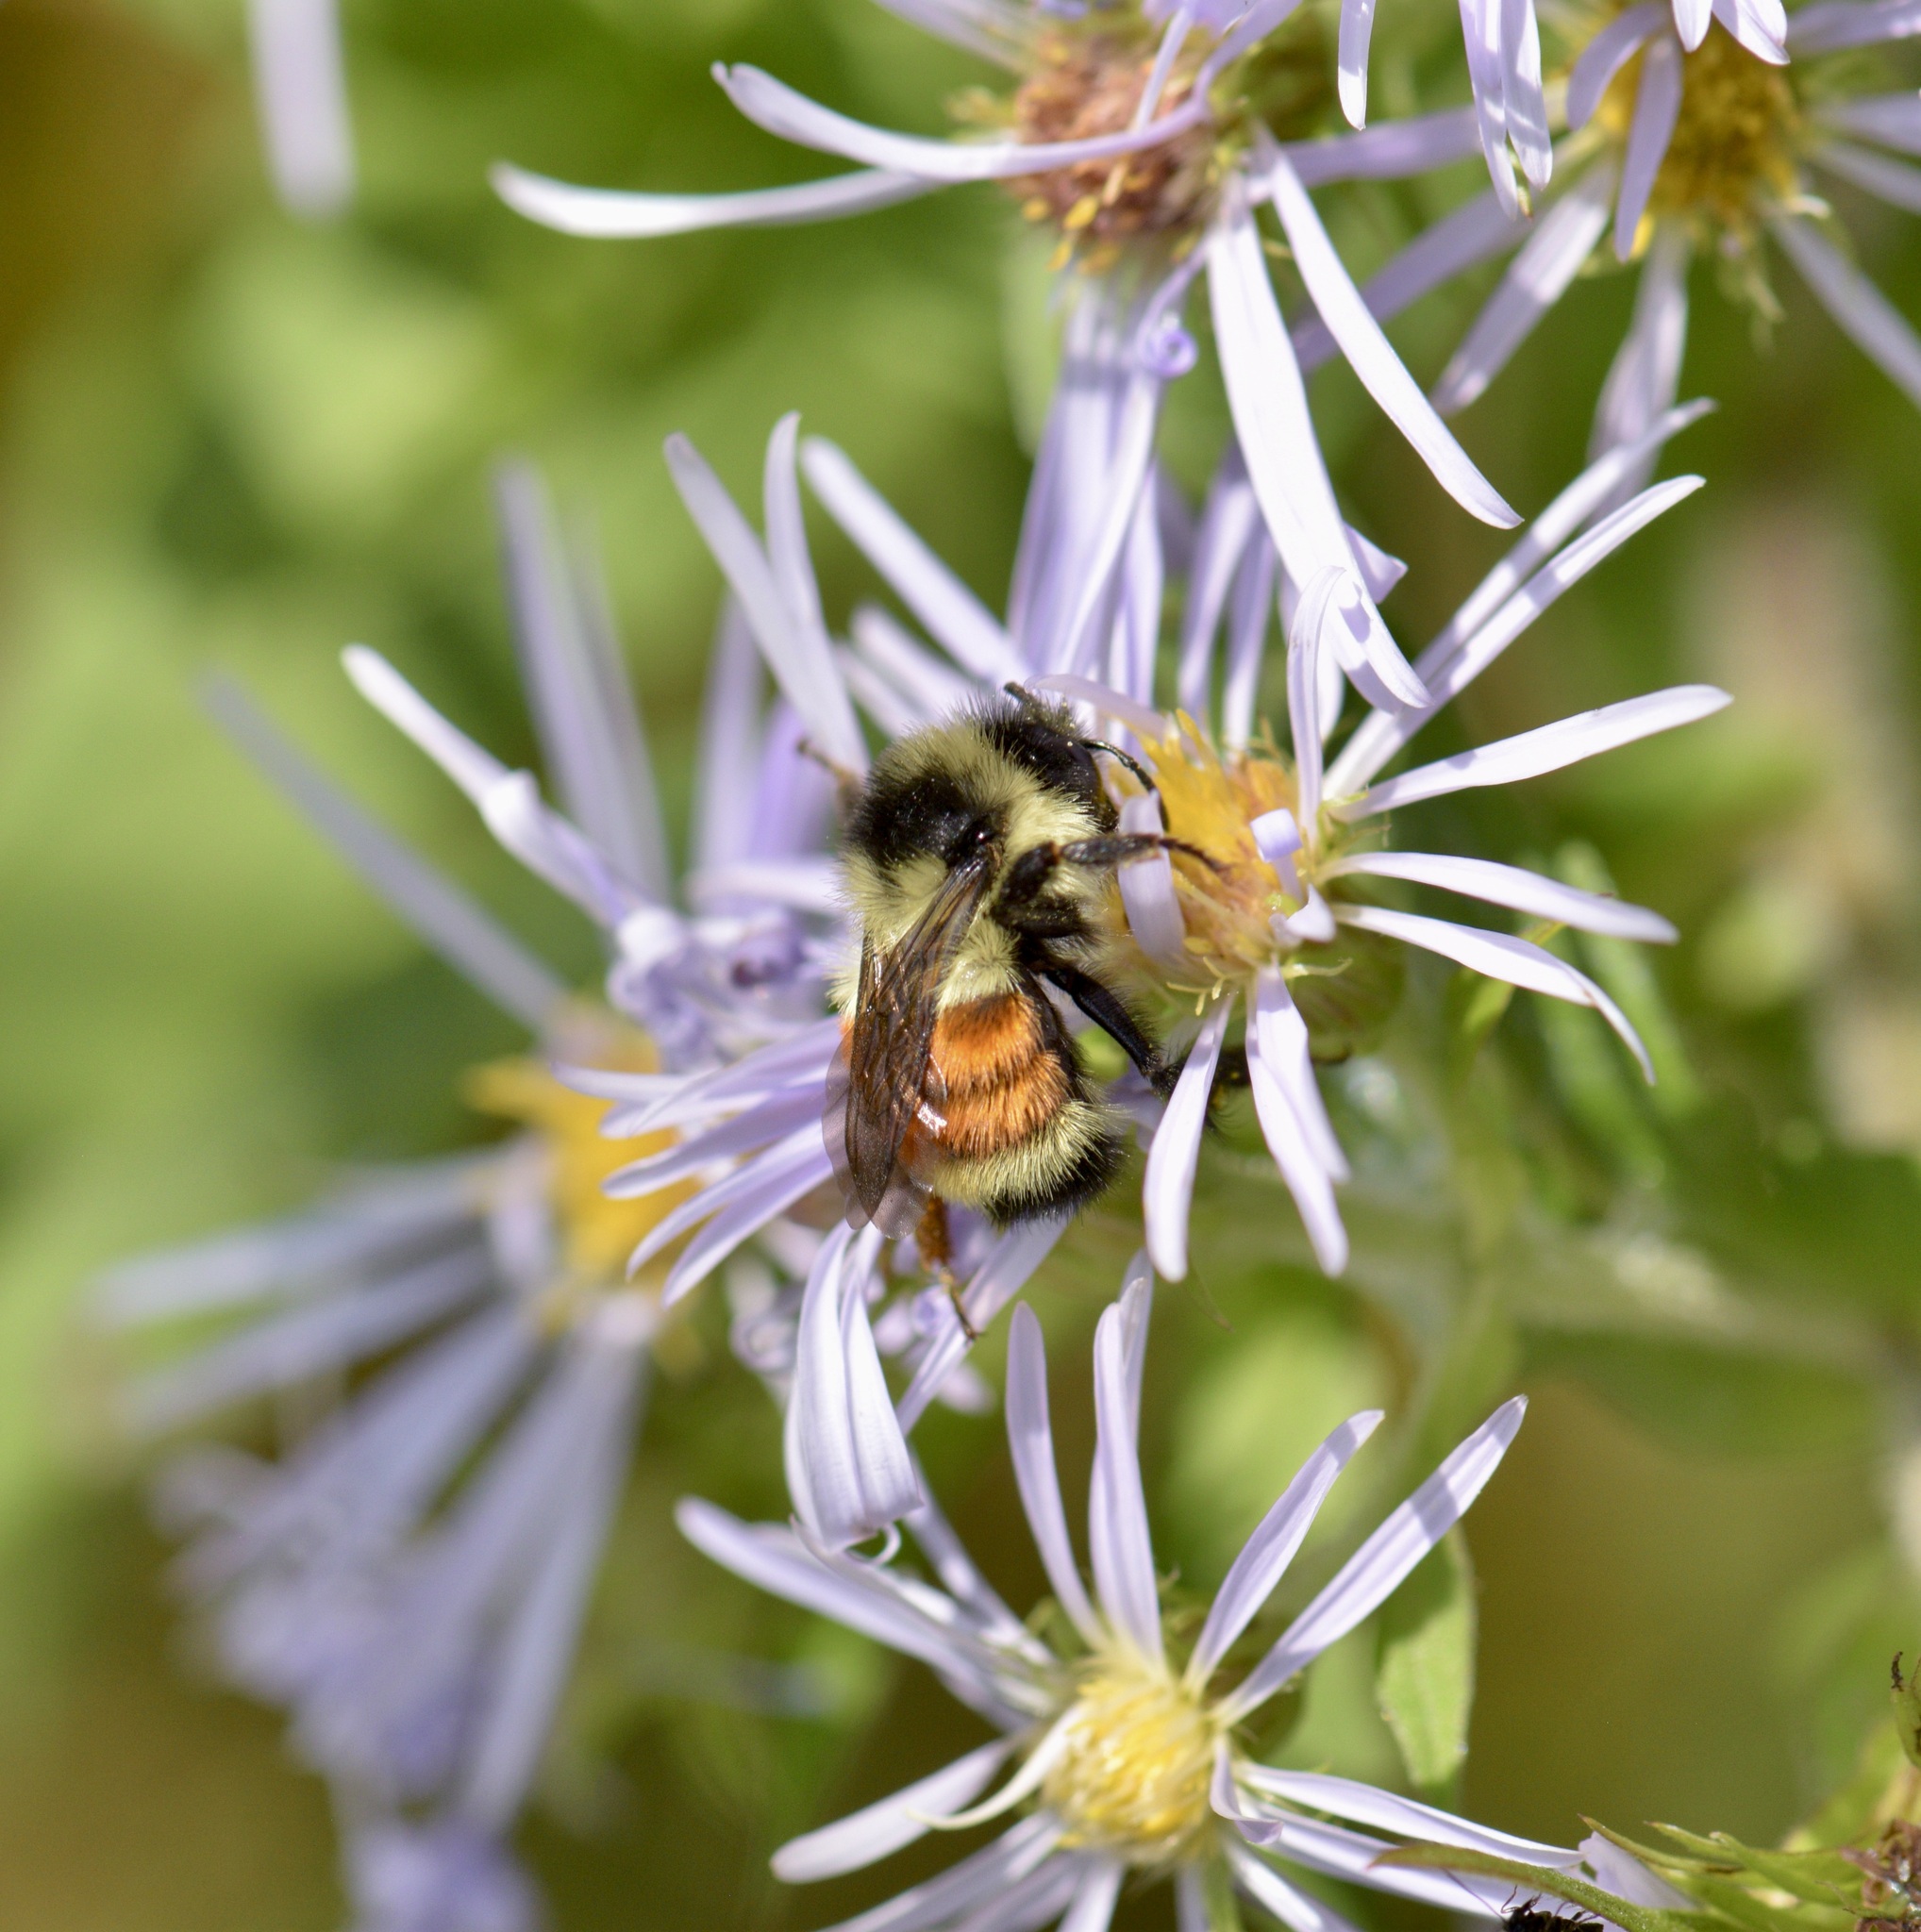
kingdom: Animalia
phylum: Arthropoda
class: Insecta
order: Hymenoptera
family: Apidae
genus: Bombus
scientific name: Bombus ternarius
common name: Tri-colored bumble bee
